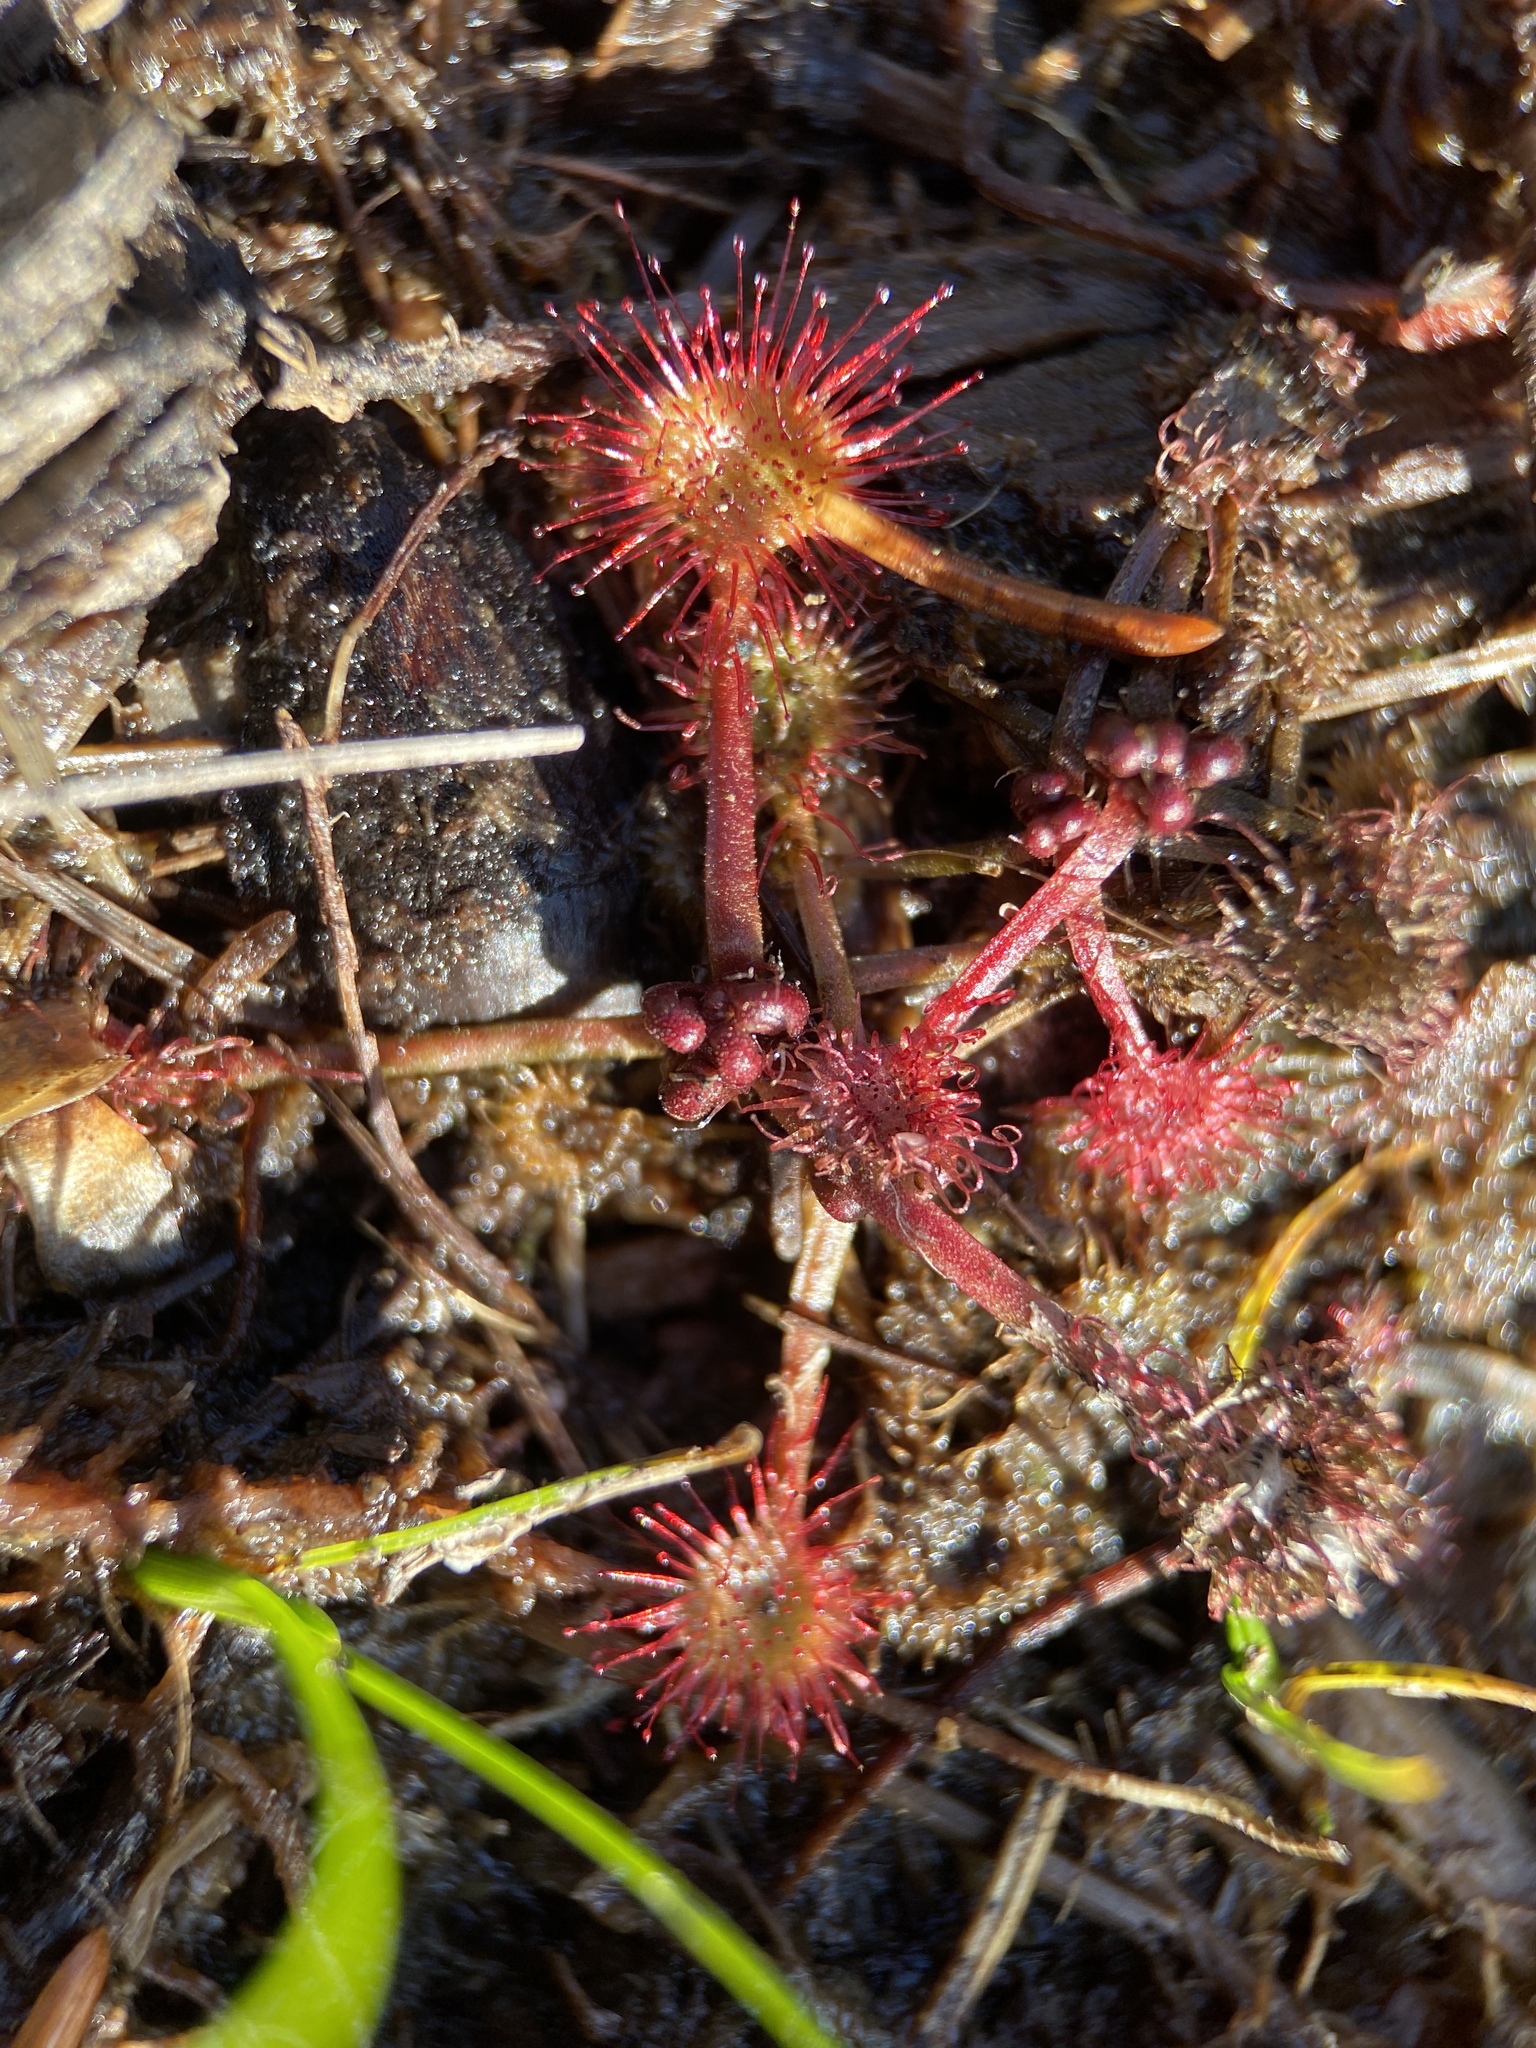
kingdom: Plantae
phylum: Tracheophyta
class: Magnoliopsida
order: Caryophyllales
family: Droseraceae
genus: Drosera
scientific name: Drosera rotundifolia
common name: Round-leaved sundew
